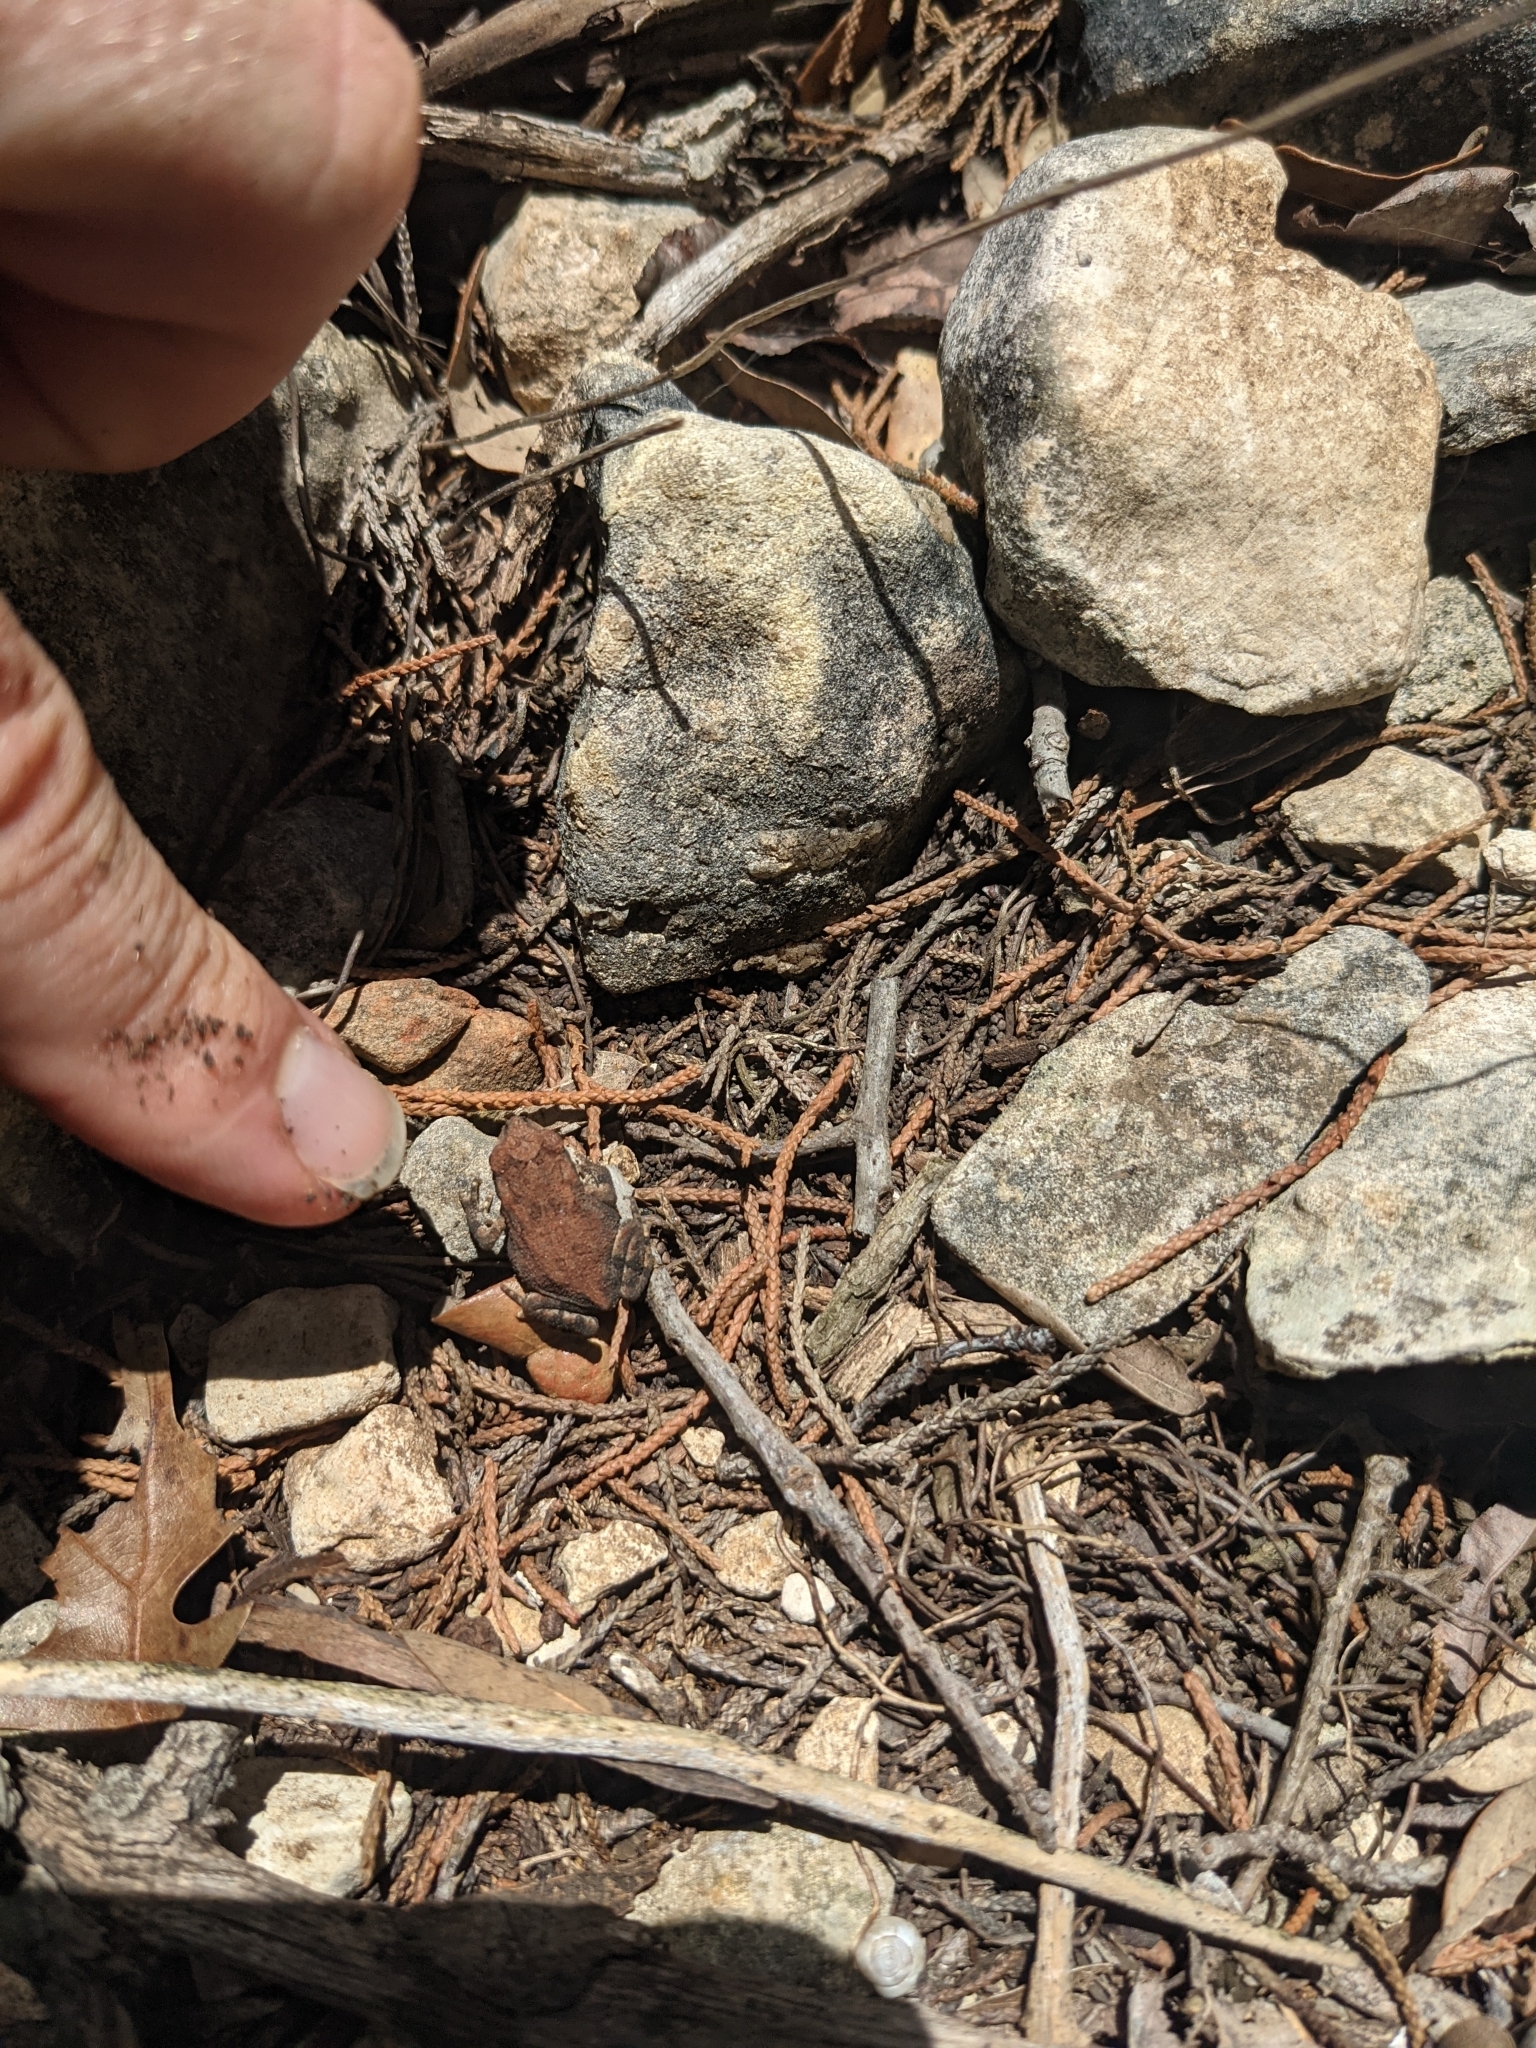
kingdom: Animalia
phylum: Chordata
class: Amphibia
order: Anura
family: Bufonidae
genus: Incilius
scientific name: Incilius nebulifer
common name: Gulf coast toad
